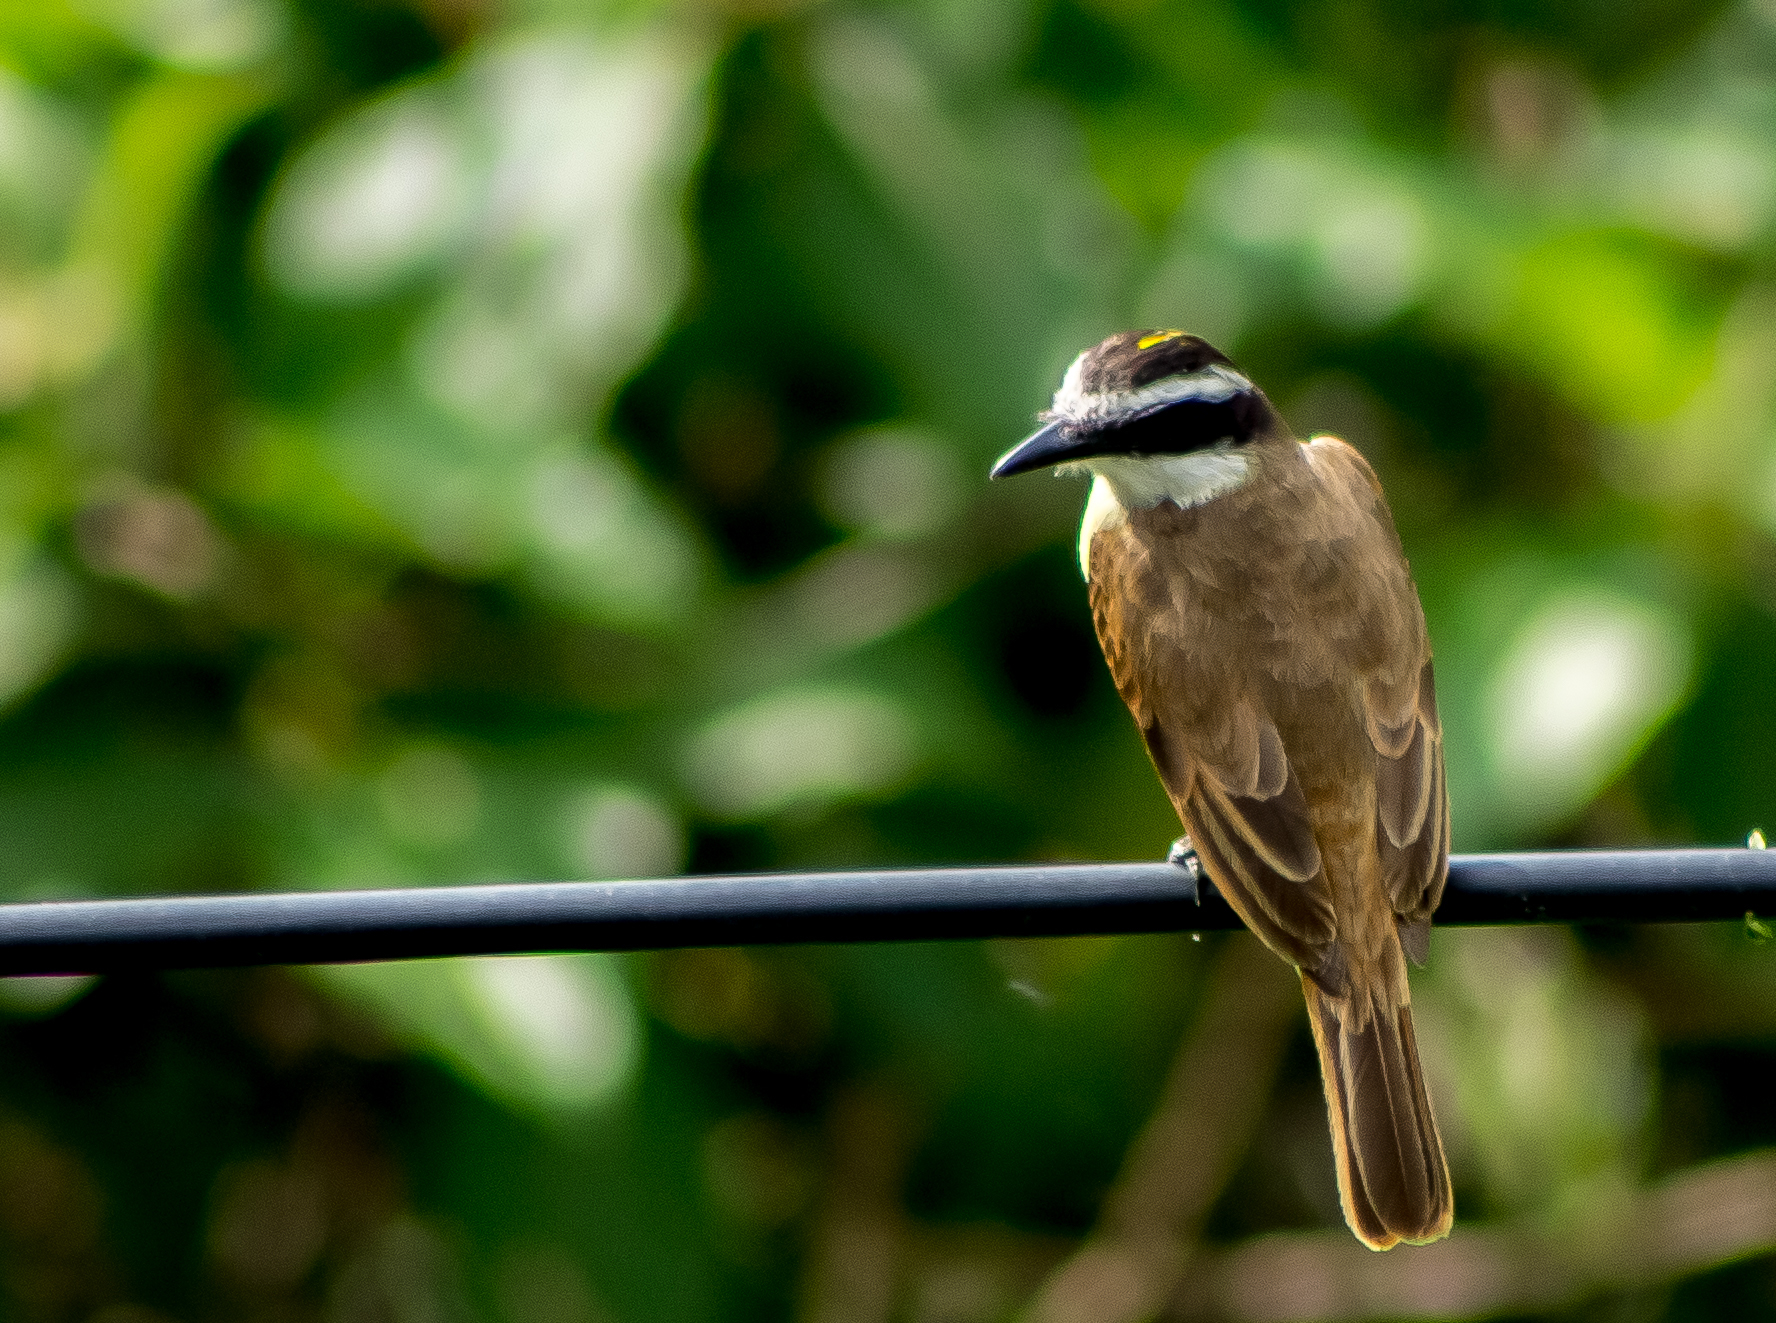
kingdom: Animalia
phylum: Chordata
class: Aves
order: Passeriformes
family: Tyrannidae
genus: Pitangus
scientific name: Pitangus sulphuratus
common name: Great kiskadee
